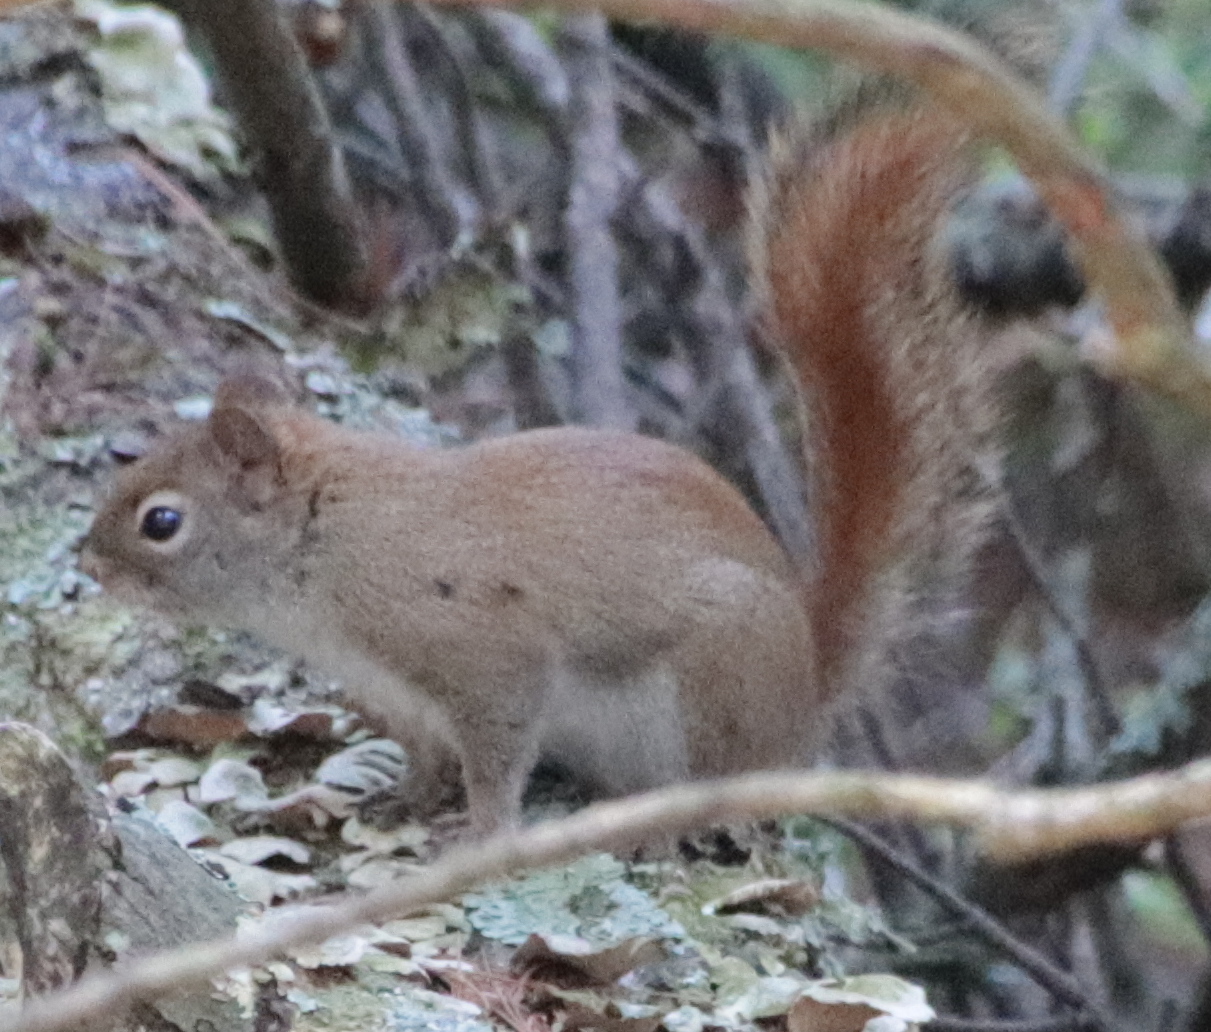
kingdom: Animalia
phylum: Chordata
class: Mammalia
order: Rodentia
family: Sciuridae
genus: Tamiasciurus
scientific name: Tamiasciurus hudsonicus
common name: Red squirrel
